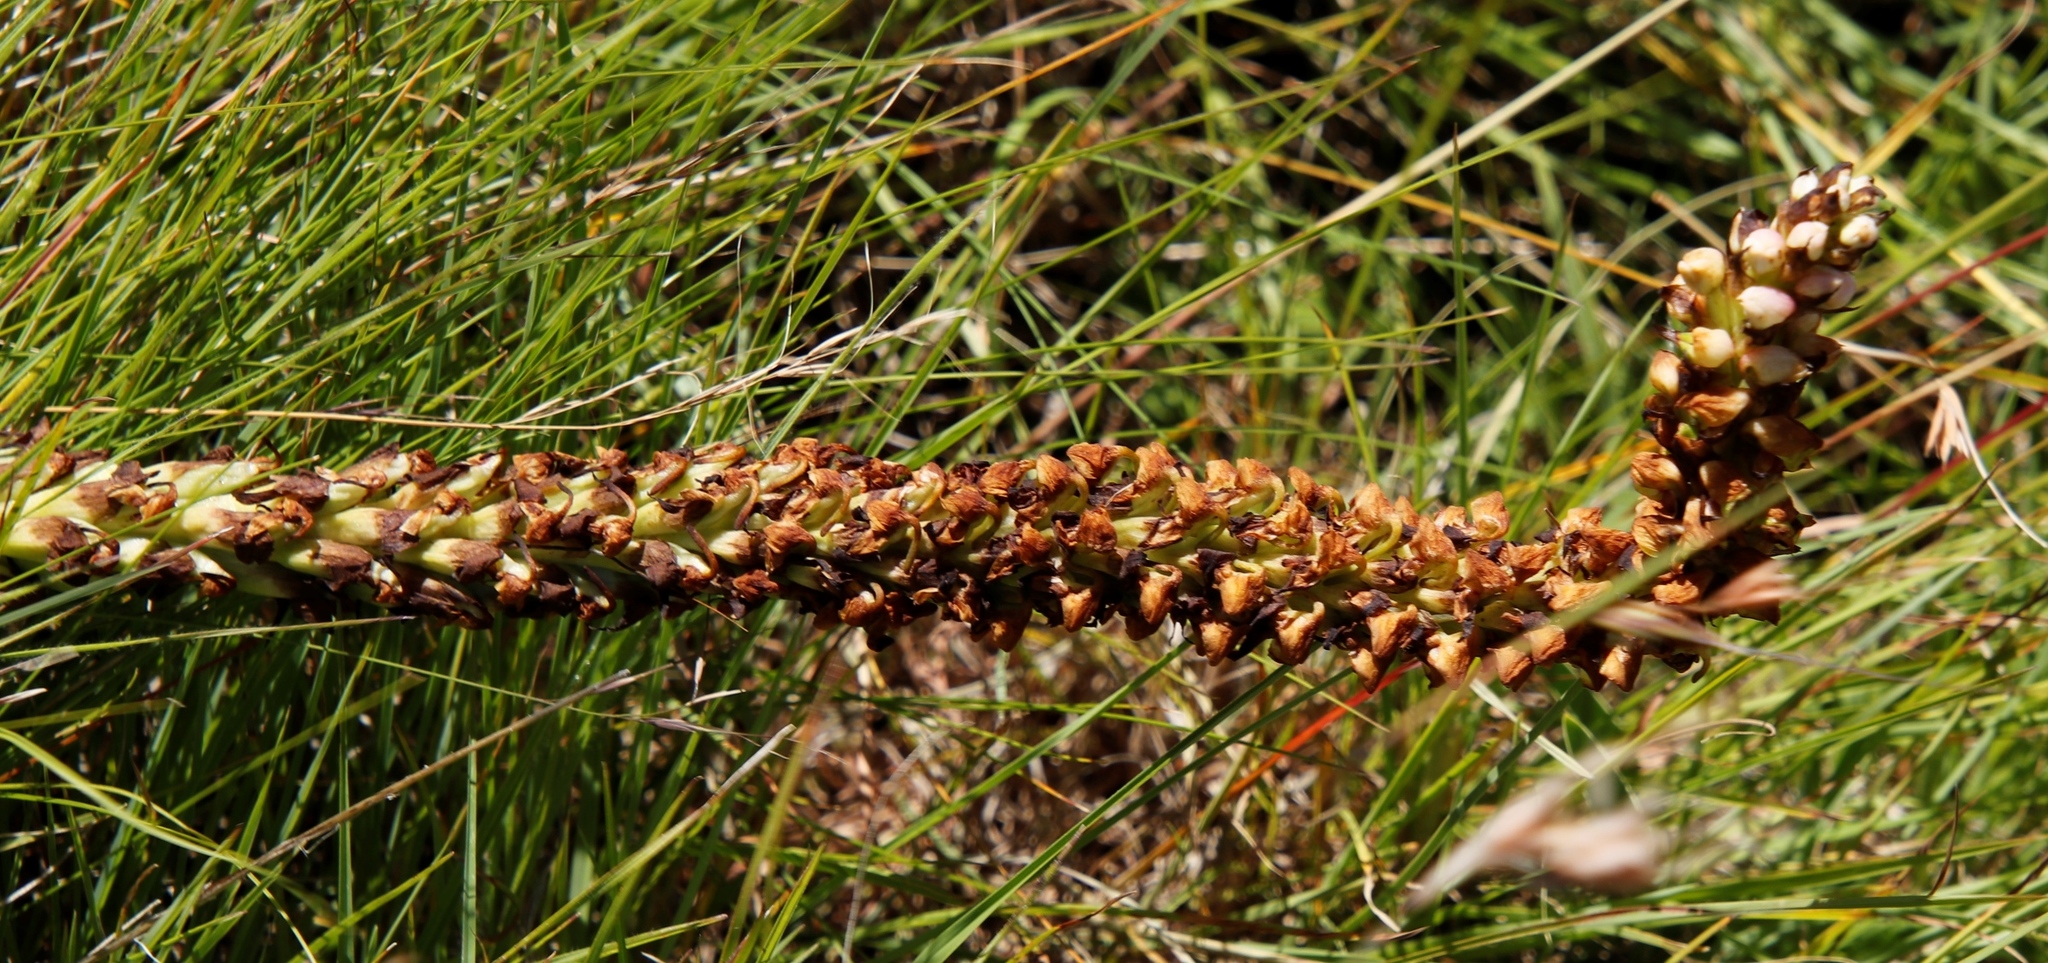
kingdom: Plantae
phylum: Tracheophyta
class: Liliopsida
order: Asparagales
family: Orchidaceae
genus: Disa
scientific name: Disa versicolor
